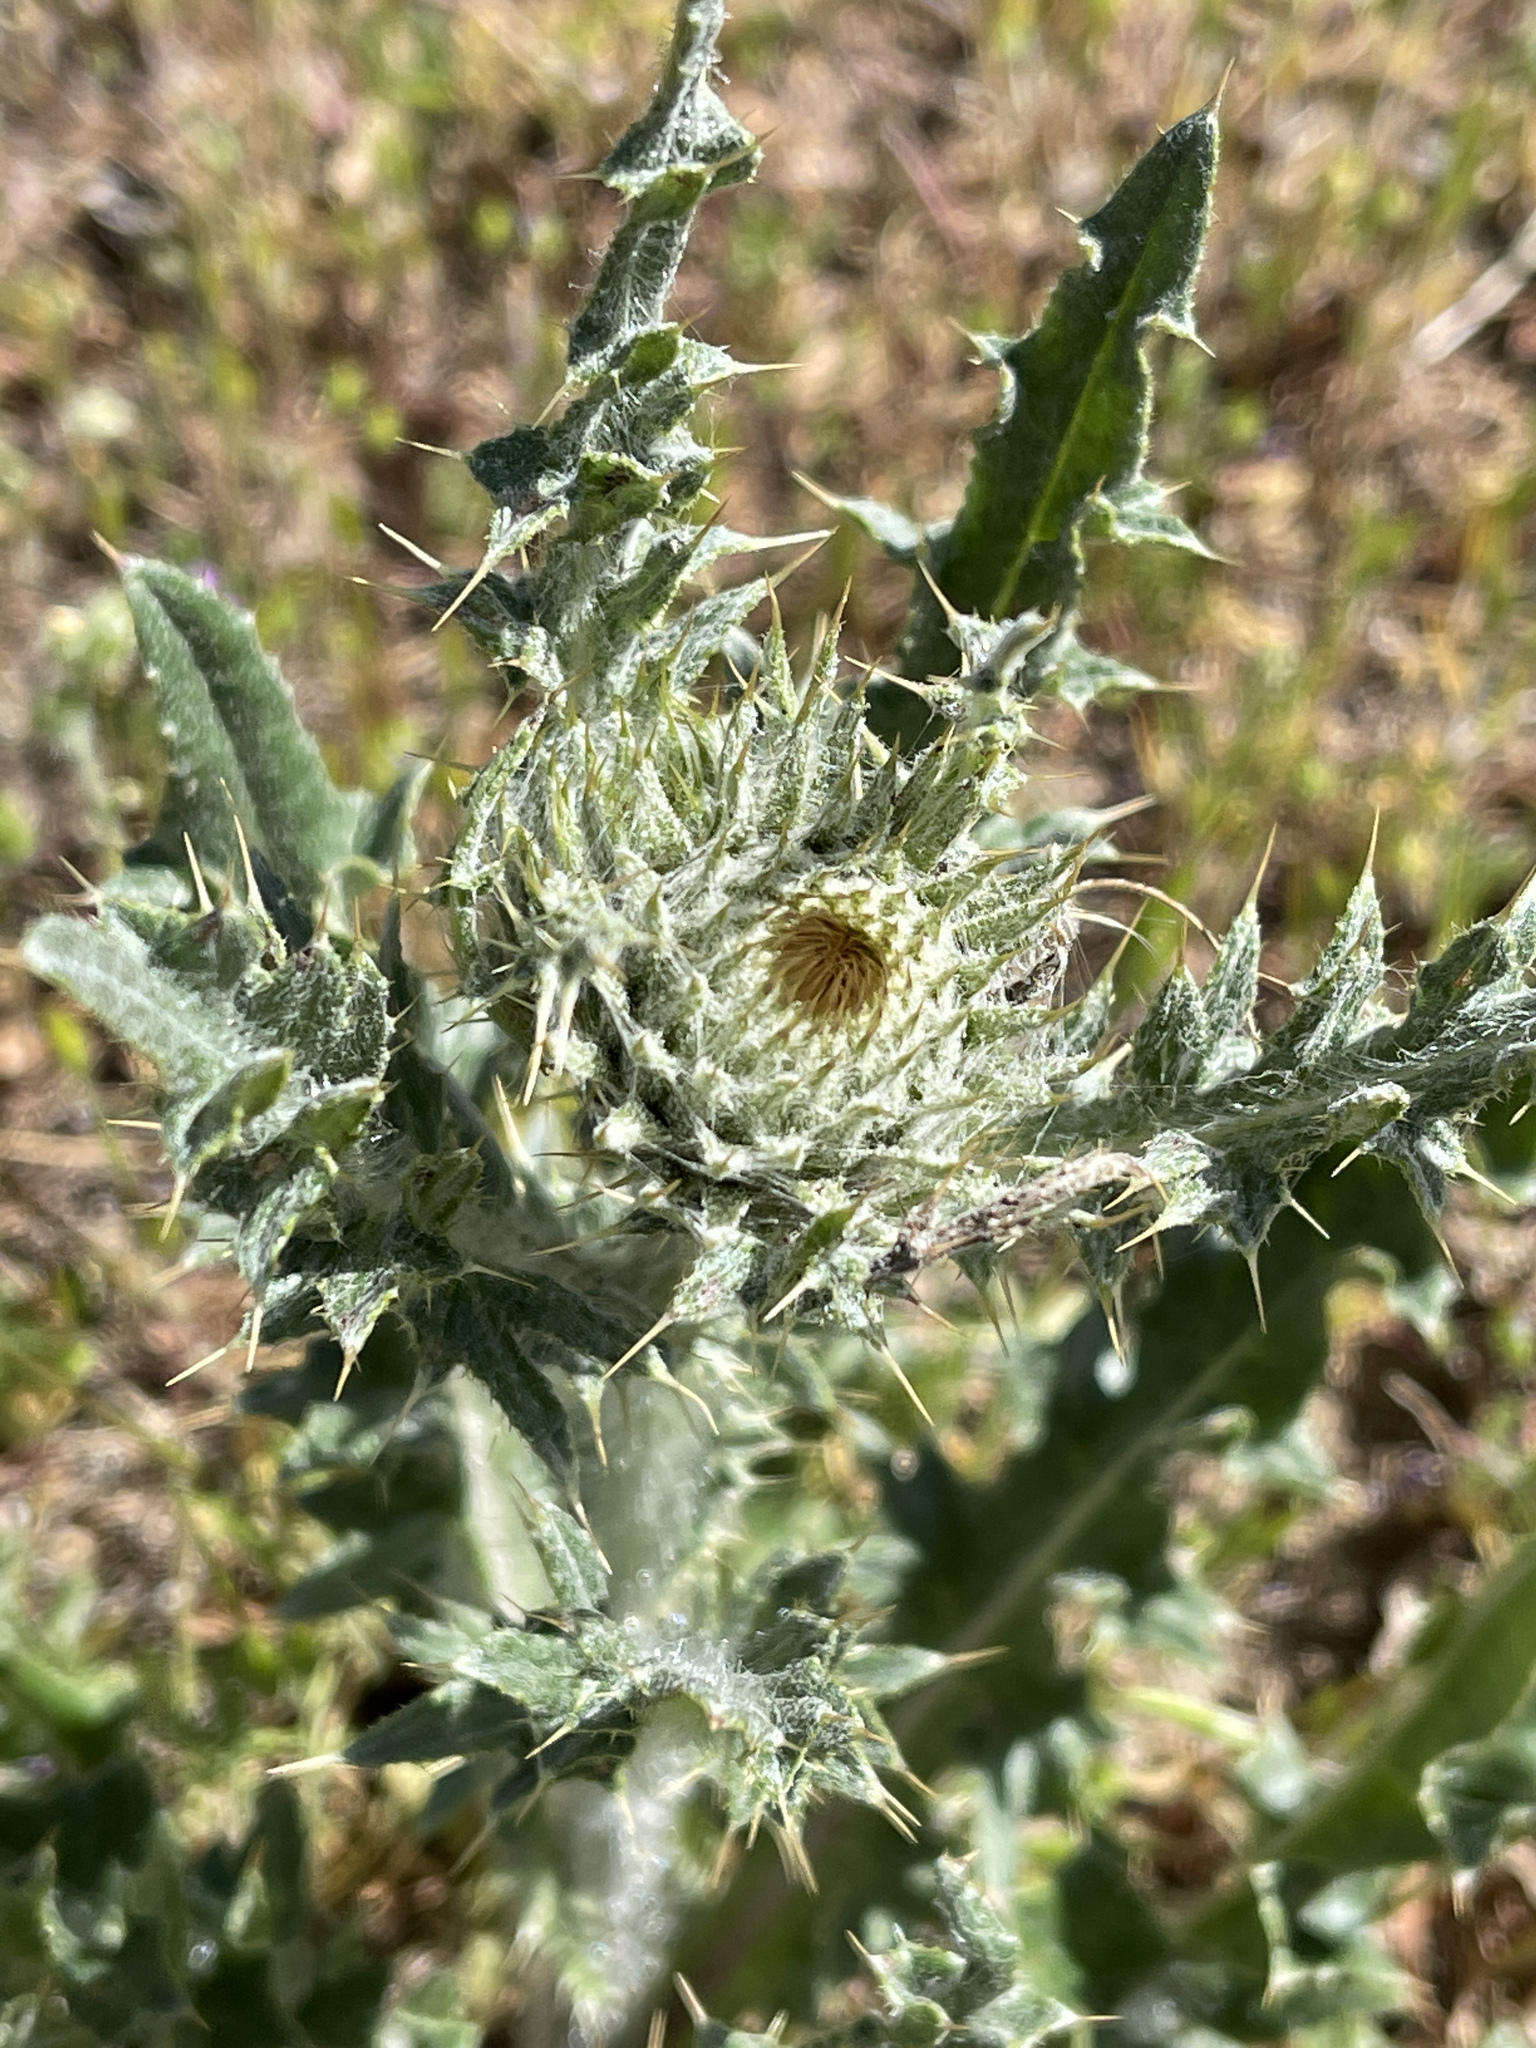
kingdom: Plantae
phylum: Tracheophyta
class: Magnoliopsida
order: Asterales
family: Asteraceae
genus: Cirsium
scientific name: Cirsium cymosum
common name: Peregrine thistle
